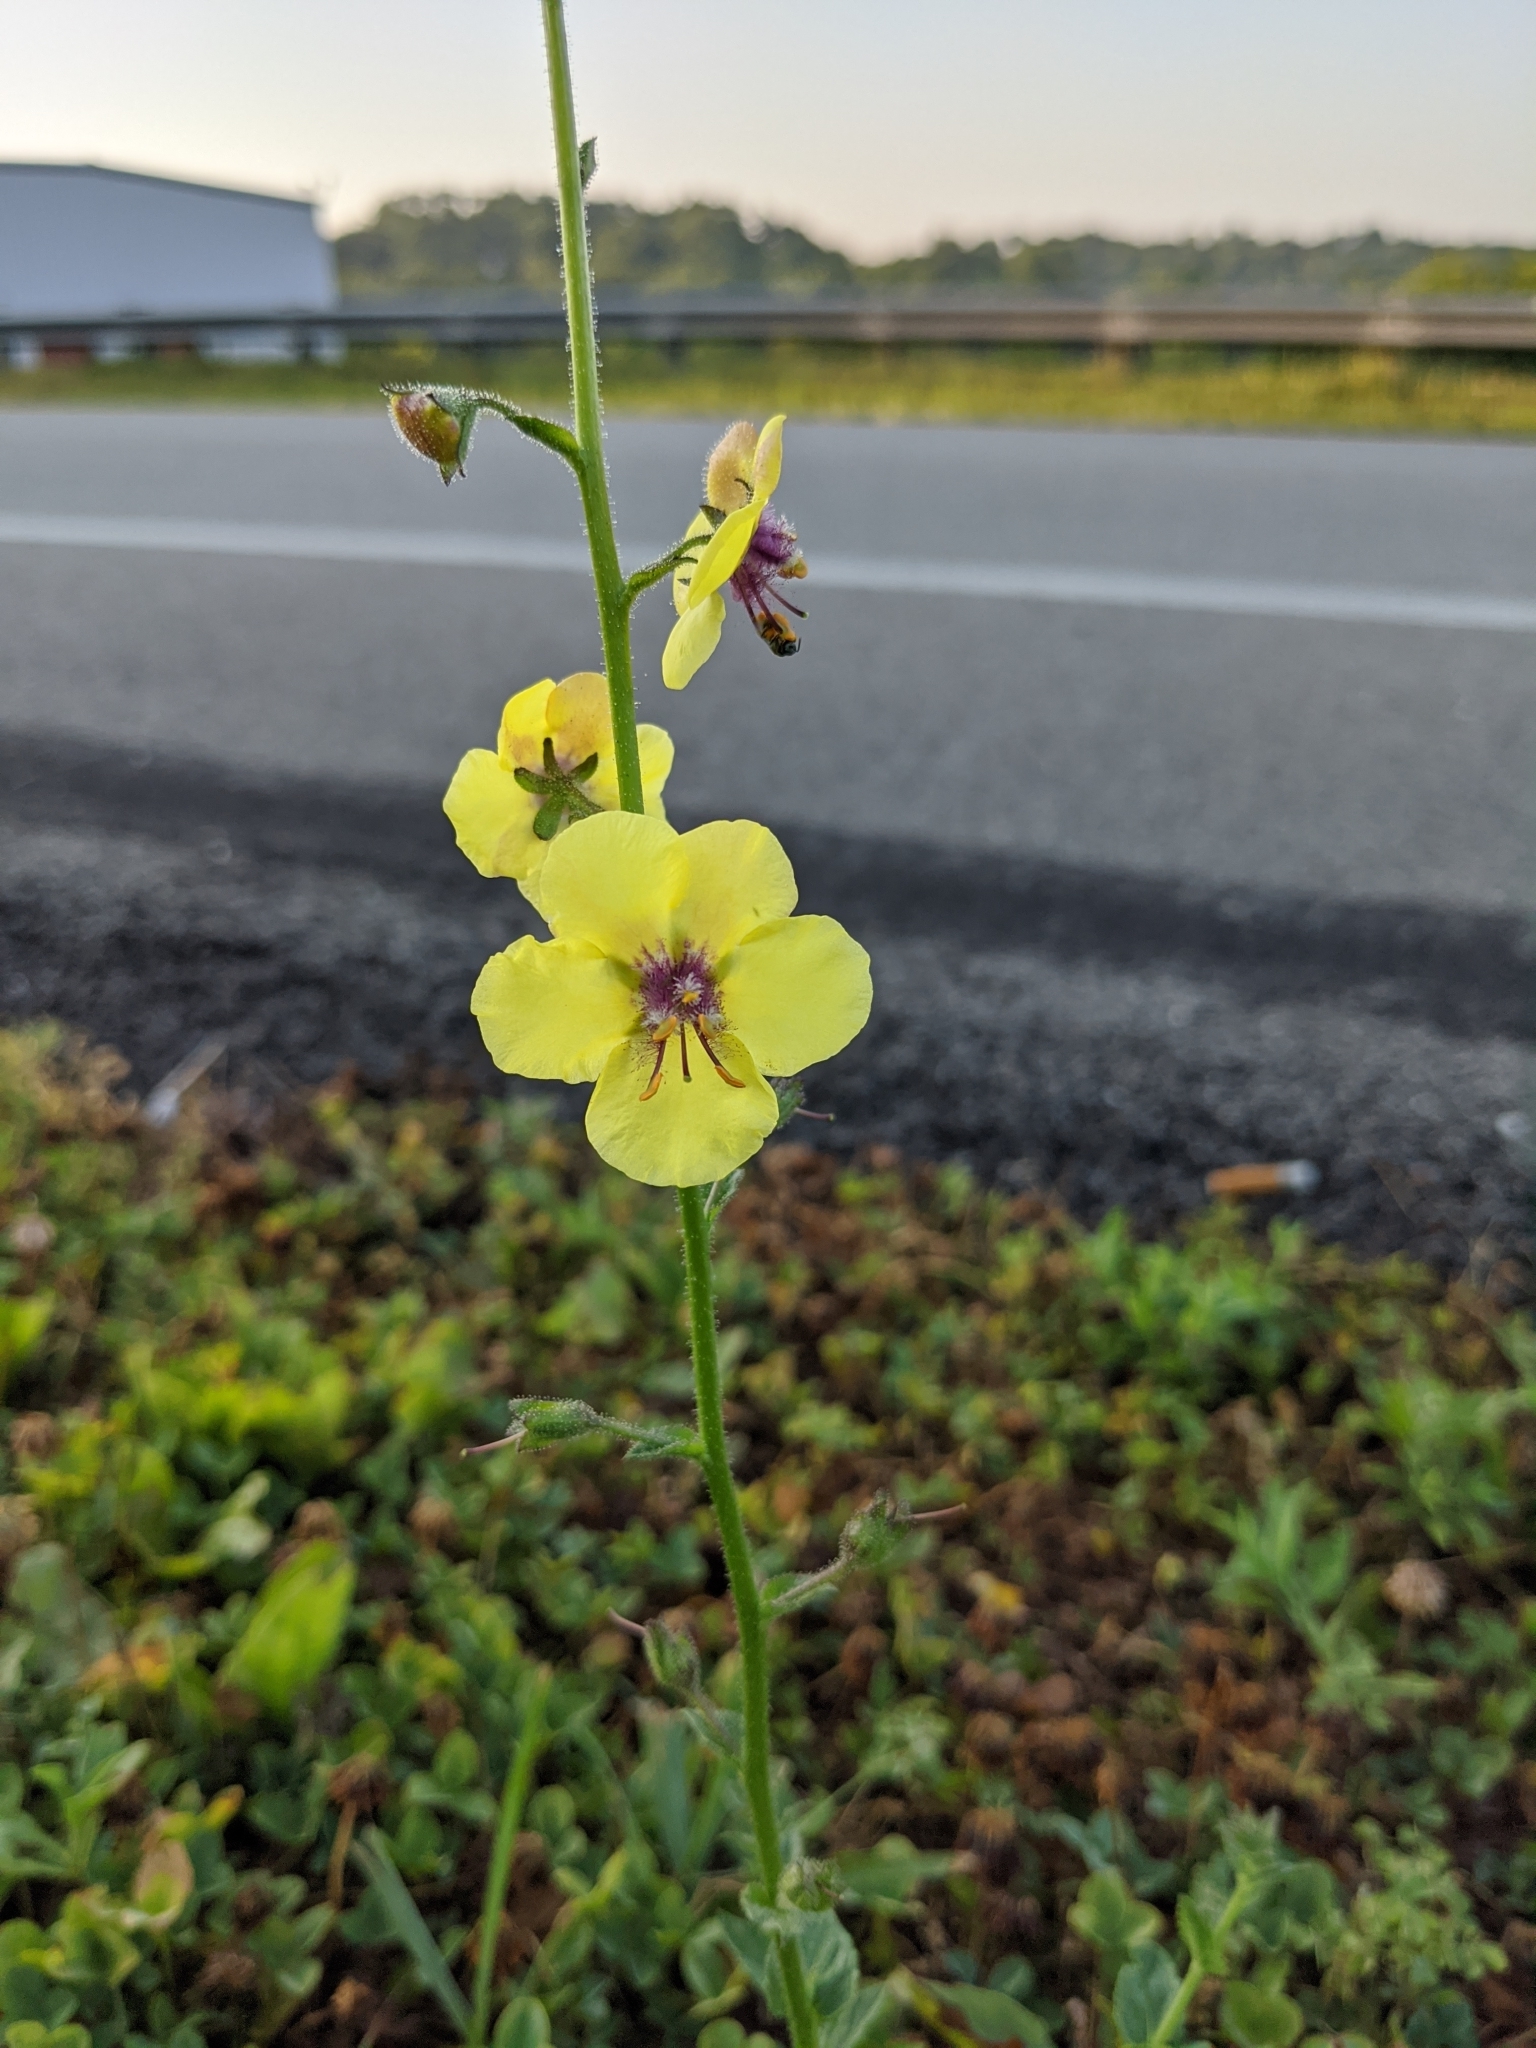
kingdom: Plantae
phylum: Tracheophyta
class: Magnoliopsida
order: Lamiales
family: Scrophulariaceae
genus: Verbascum
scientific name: Verbascum blattaria
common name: Moth mullein
